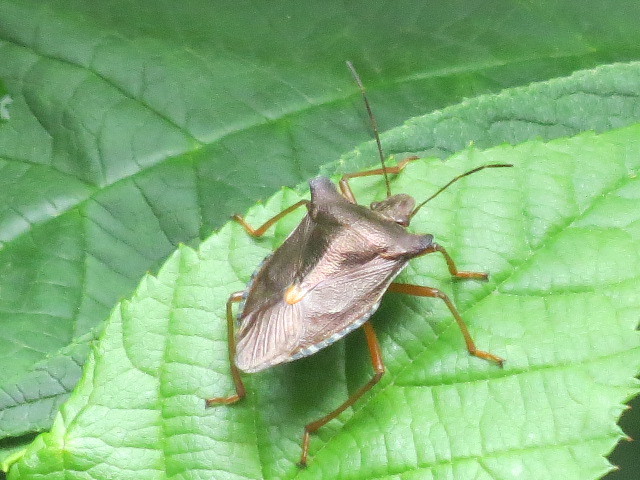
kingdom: Animalia
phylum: Arthropoda
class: Insecta
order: Hemiptera
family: Pentatomidae
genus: Pentatoma
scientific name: Pentatoma rufipes
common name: Forest bug
